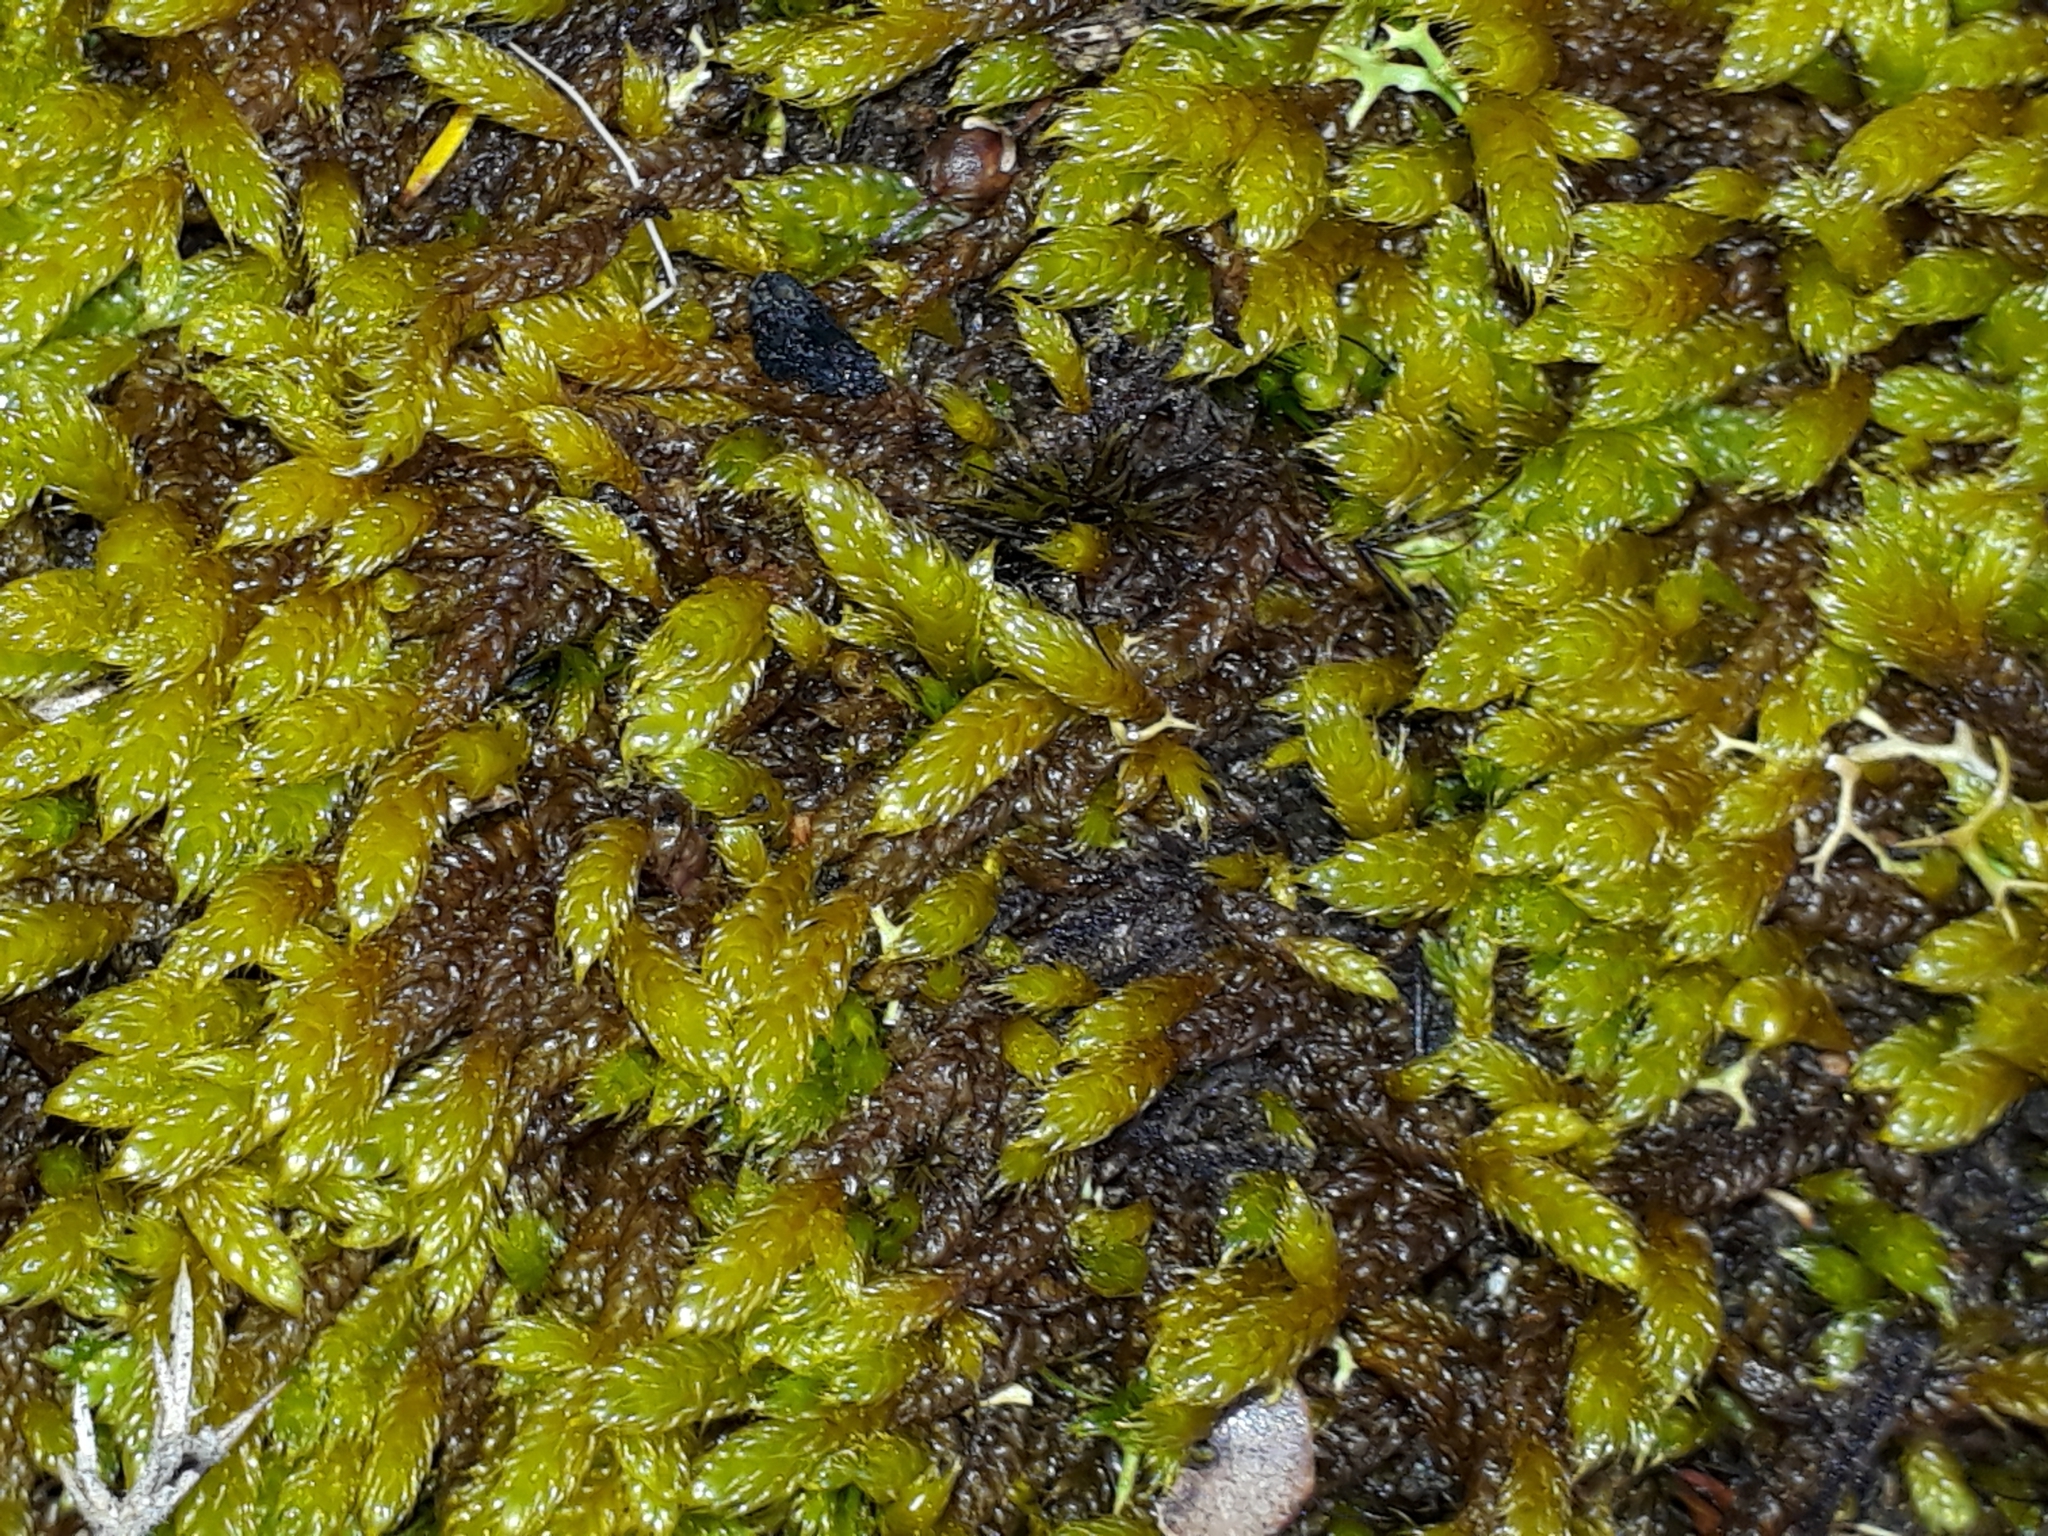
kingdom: Plantae
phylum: Bryophyta
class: Bryopsida
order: Hypnales
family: Hypnaceae
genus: Hypnum
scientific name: Hypnum cupressiforme
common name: Cypress-leaved plait-moss
